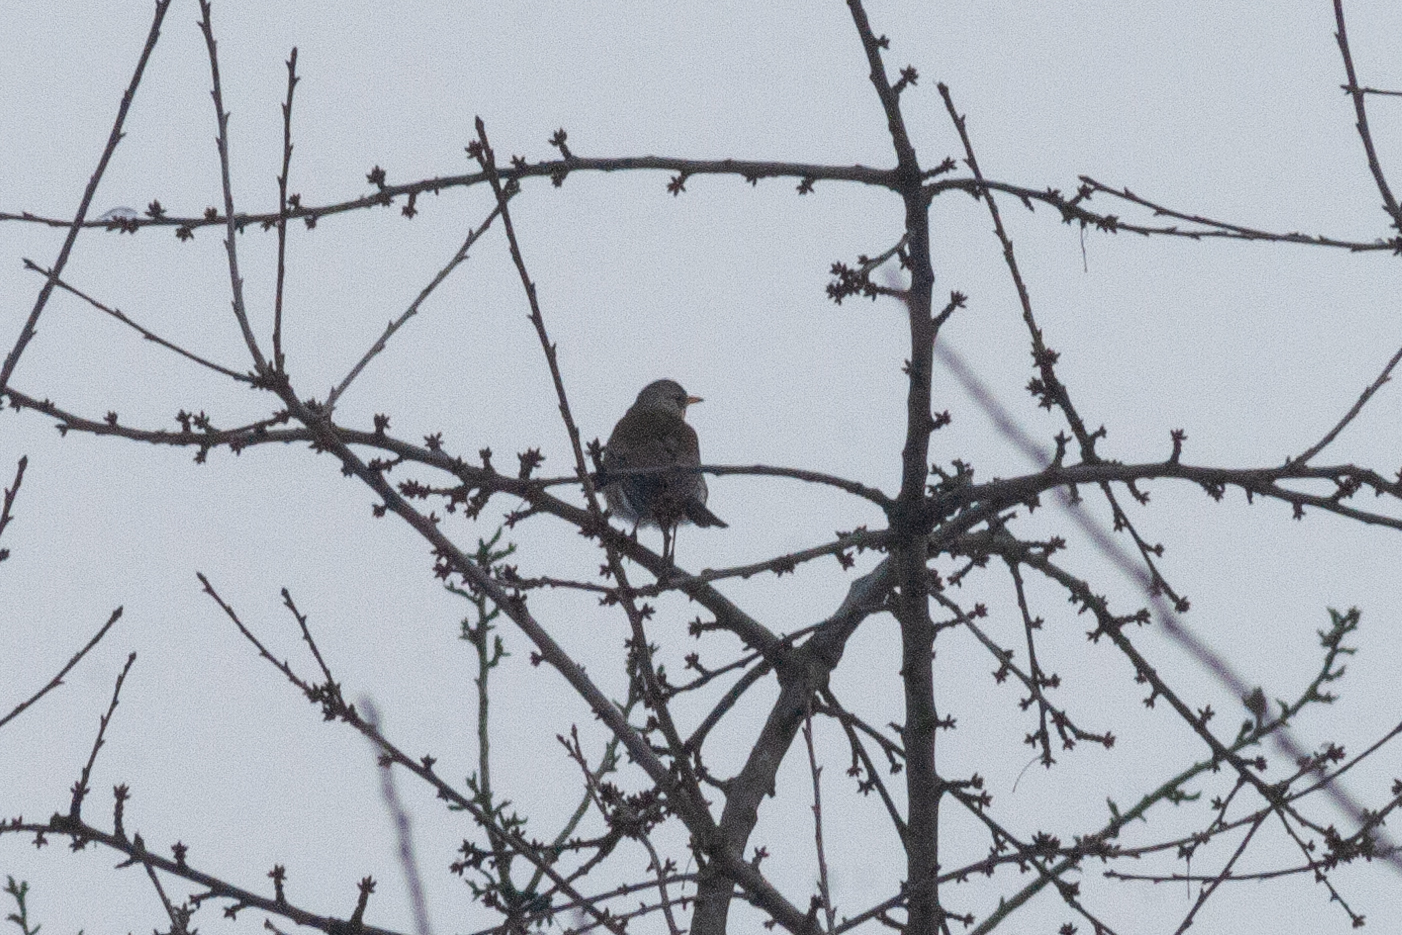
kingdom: Animalia
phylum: Chordata
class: Aves
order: Passeriformes
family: Turdidae
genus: Turdus
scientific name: Turdus pilaris
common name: Fieldfare
